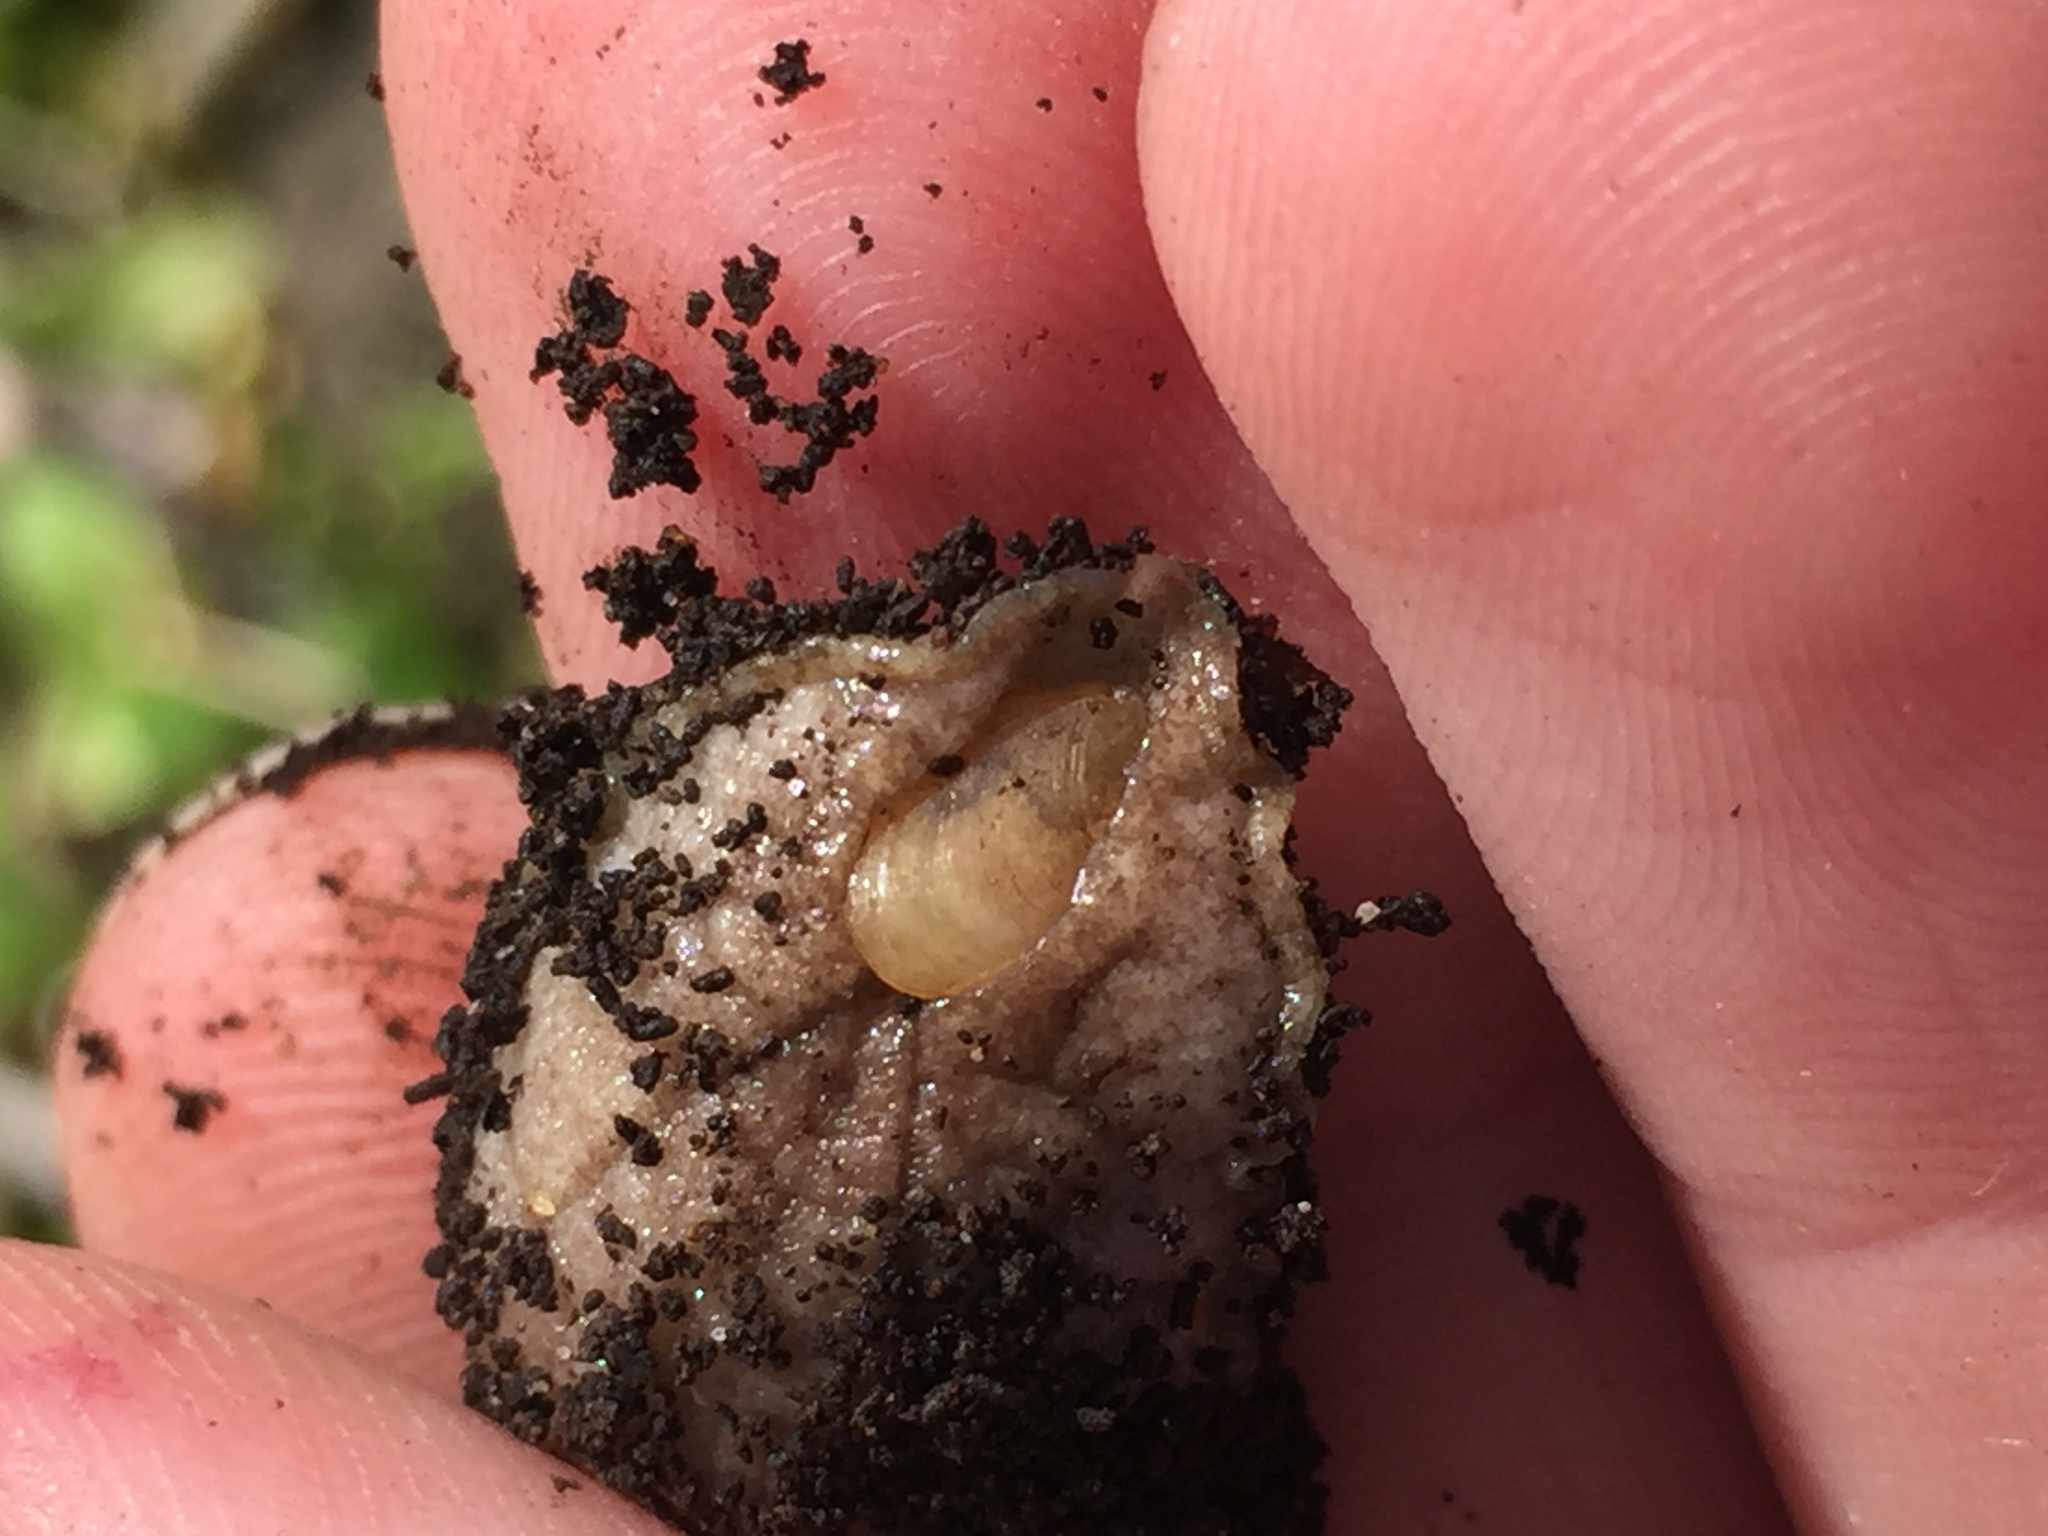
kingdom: Animalia
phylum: Mollusca
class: Gastropoda
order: Stylommatophora
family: Testacellidae
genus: Testacella
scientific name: Testacella haliotidea
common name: Shelled slug
